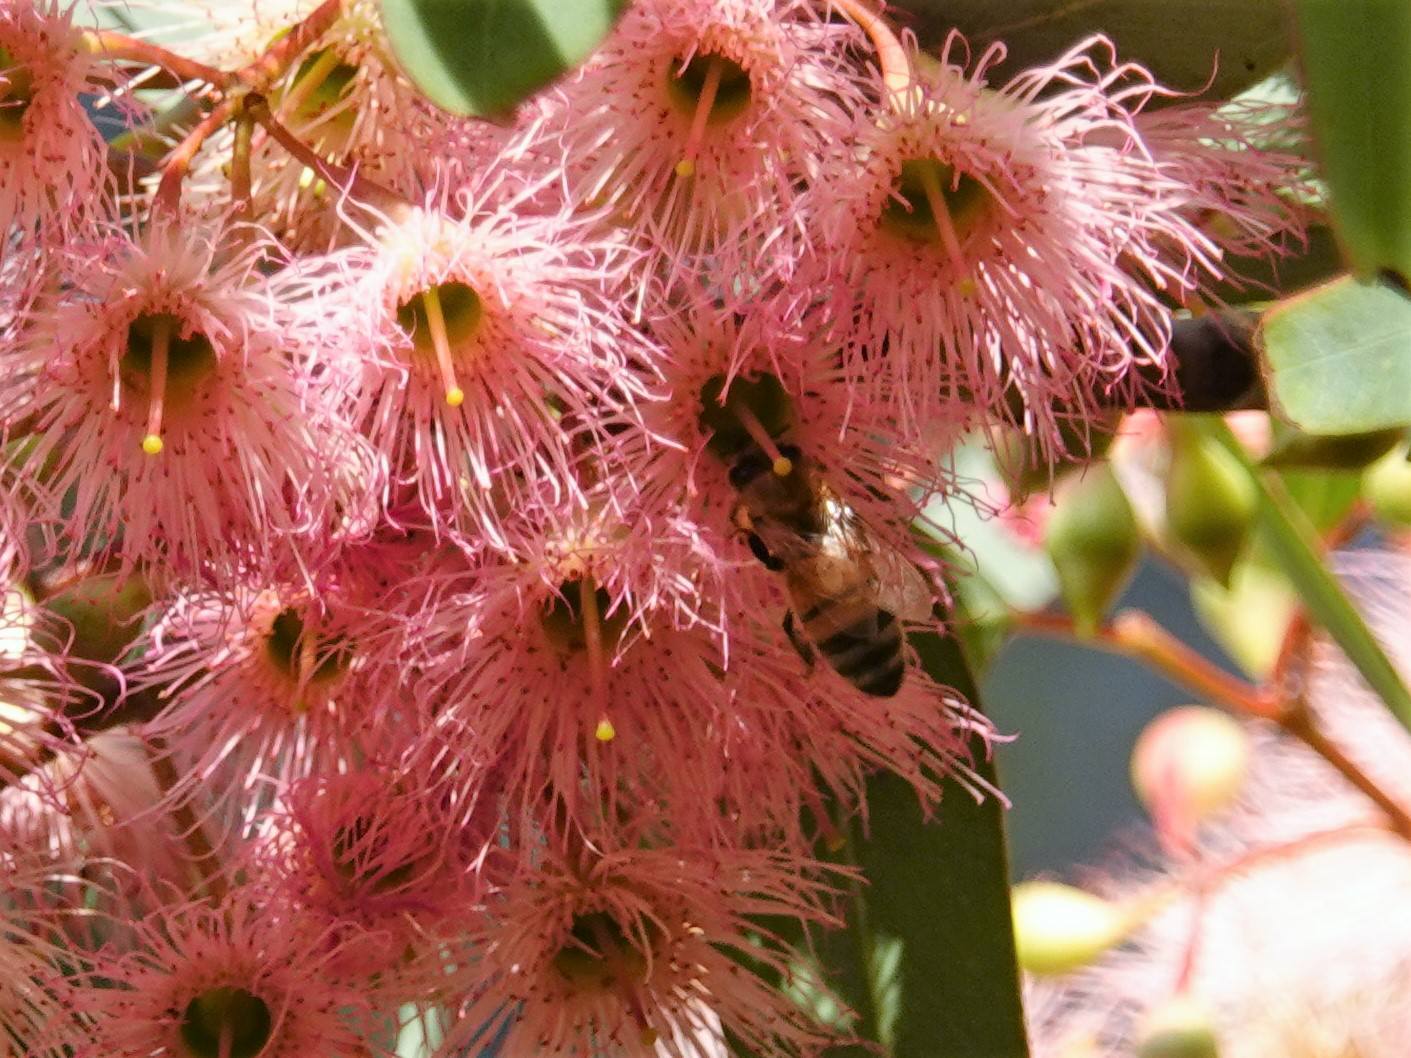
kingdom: Animalia
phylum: Arthropoda
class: Insecta
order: Hymenoptera
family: Apidae
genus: Apis
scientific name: Apis mellifera
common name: Honey bee
